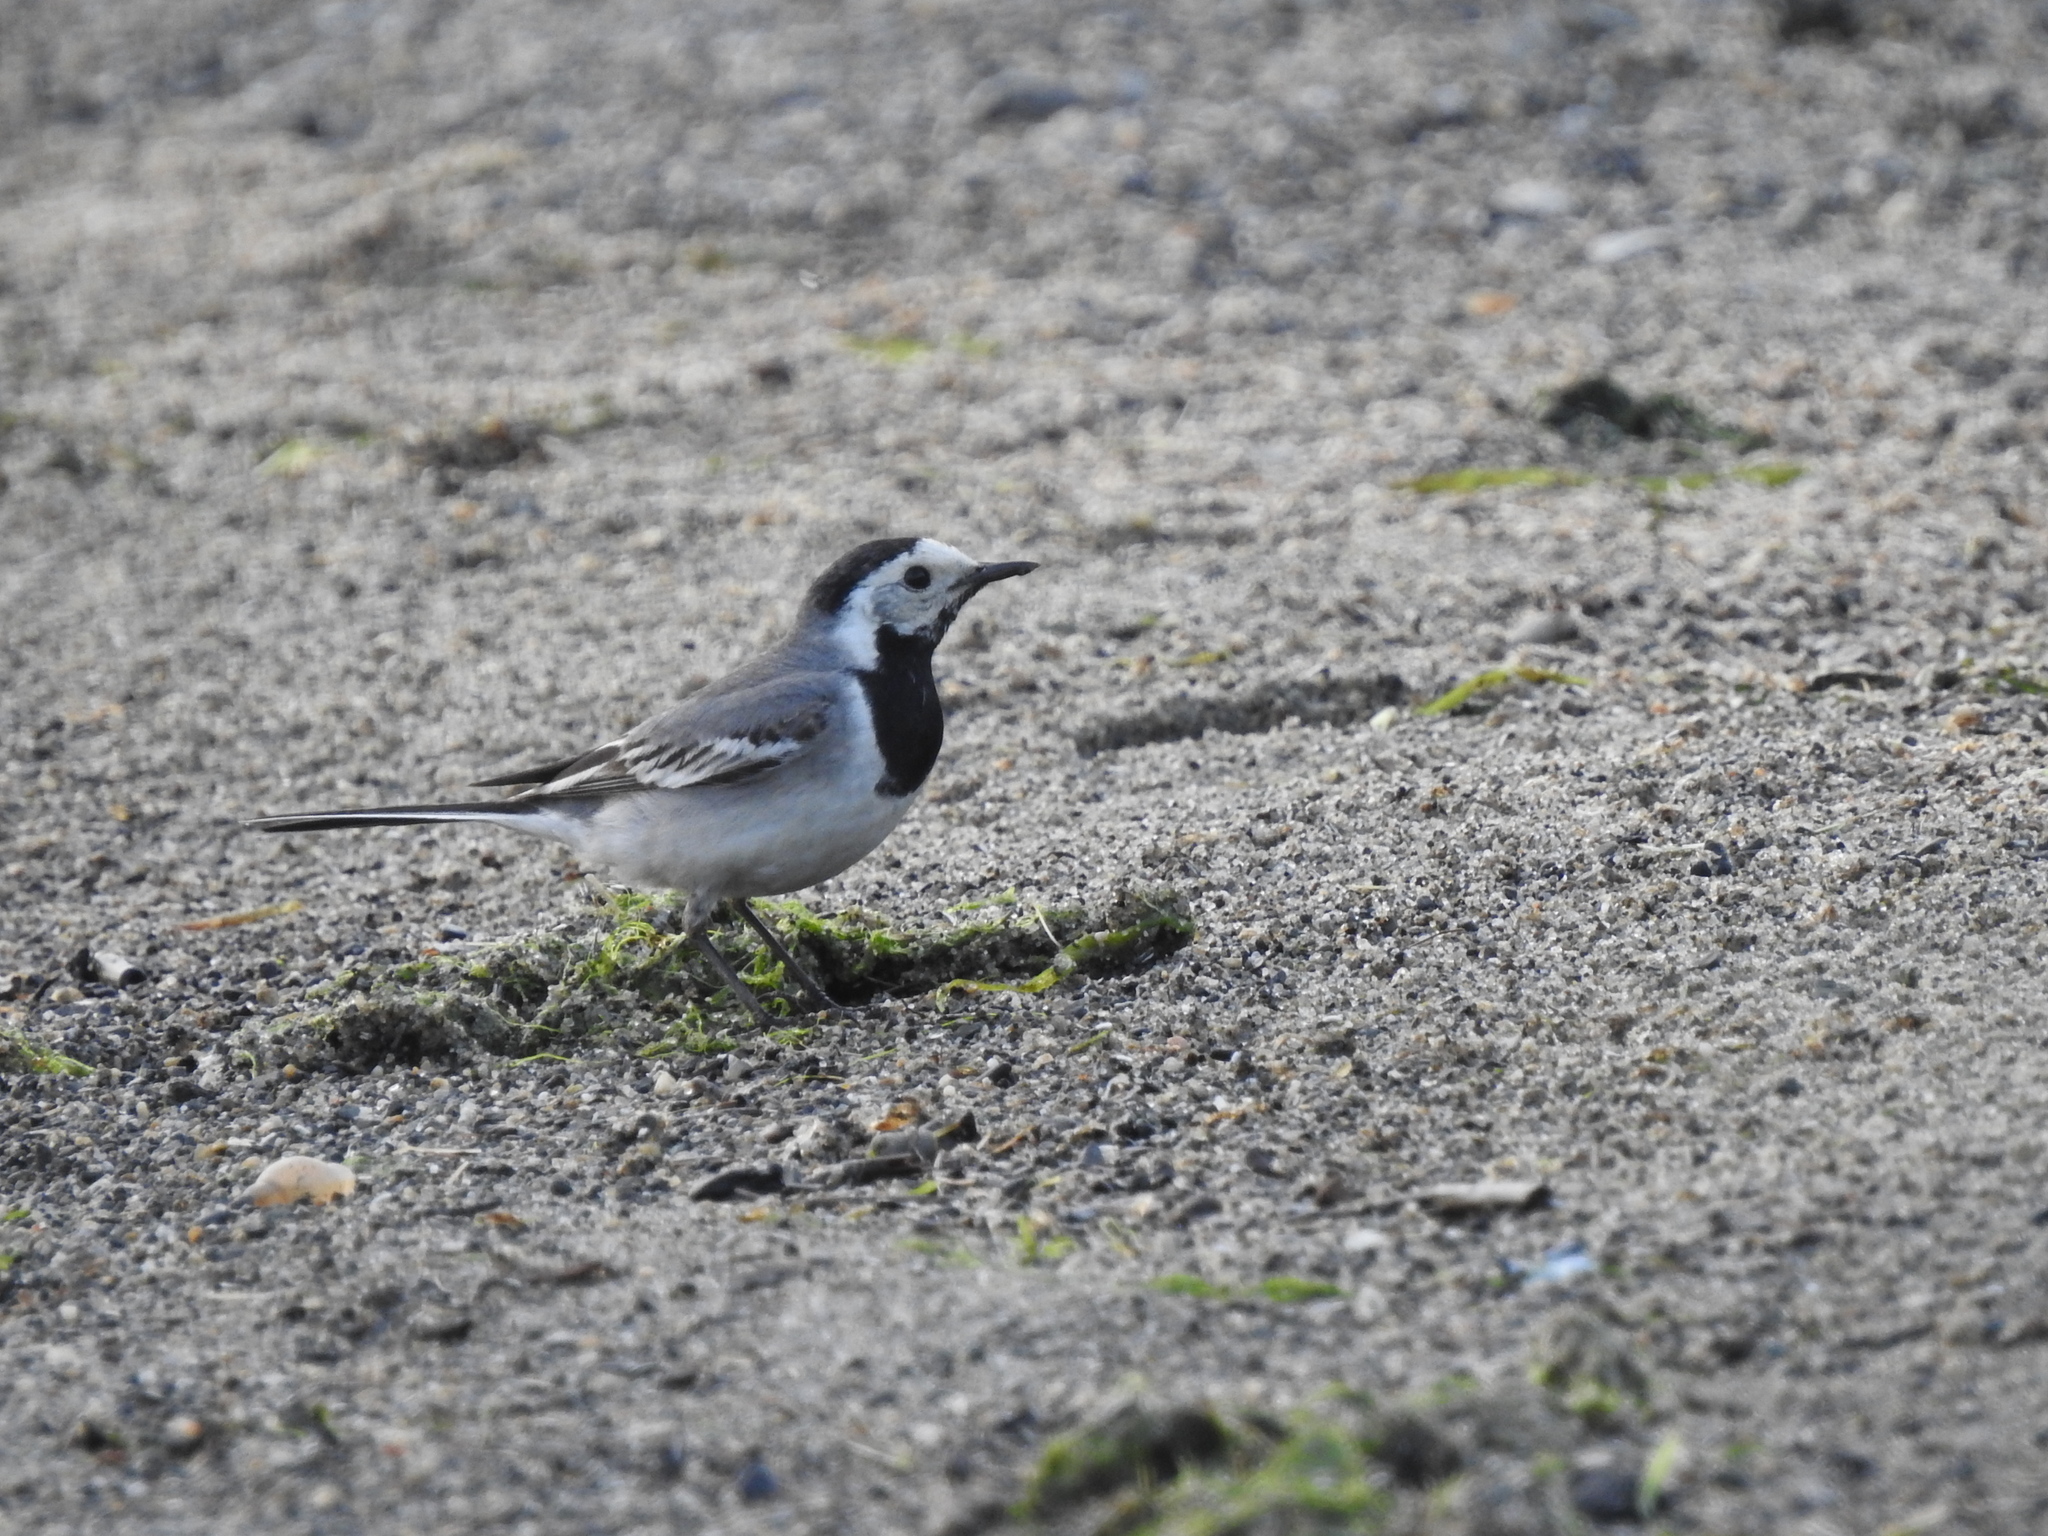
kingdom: Animalia
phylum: Chordata
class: Aves
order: Passeriformes
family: Motacillidae
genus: Motacilla
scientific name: Motacilla alba
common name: White wagtail
